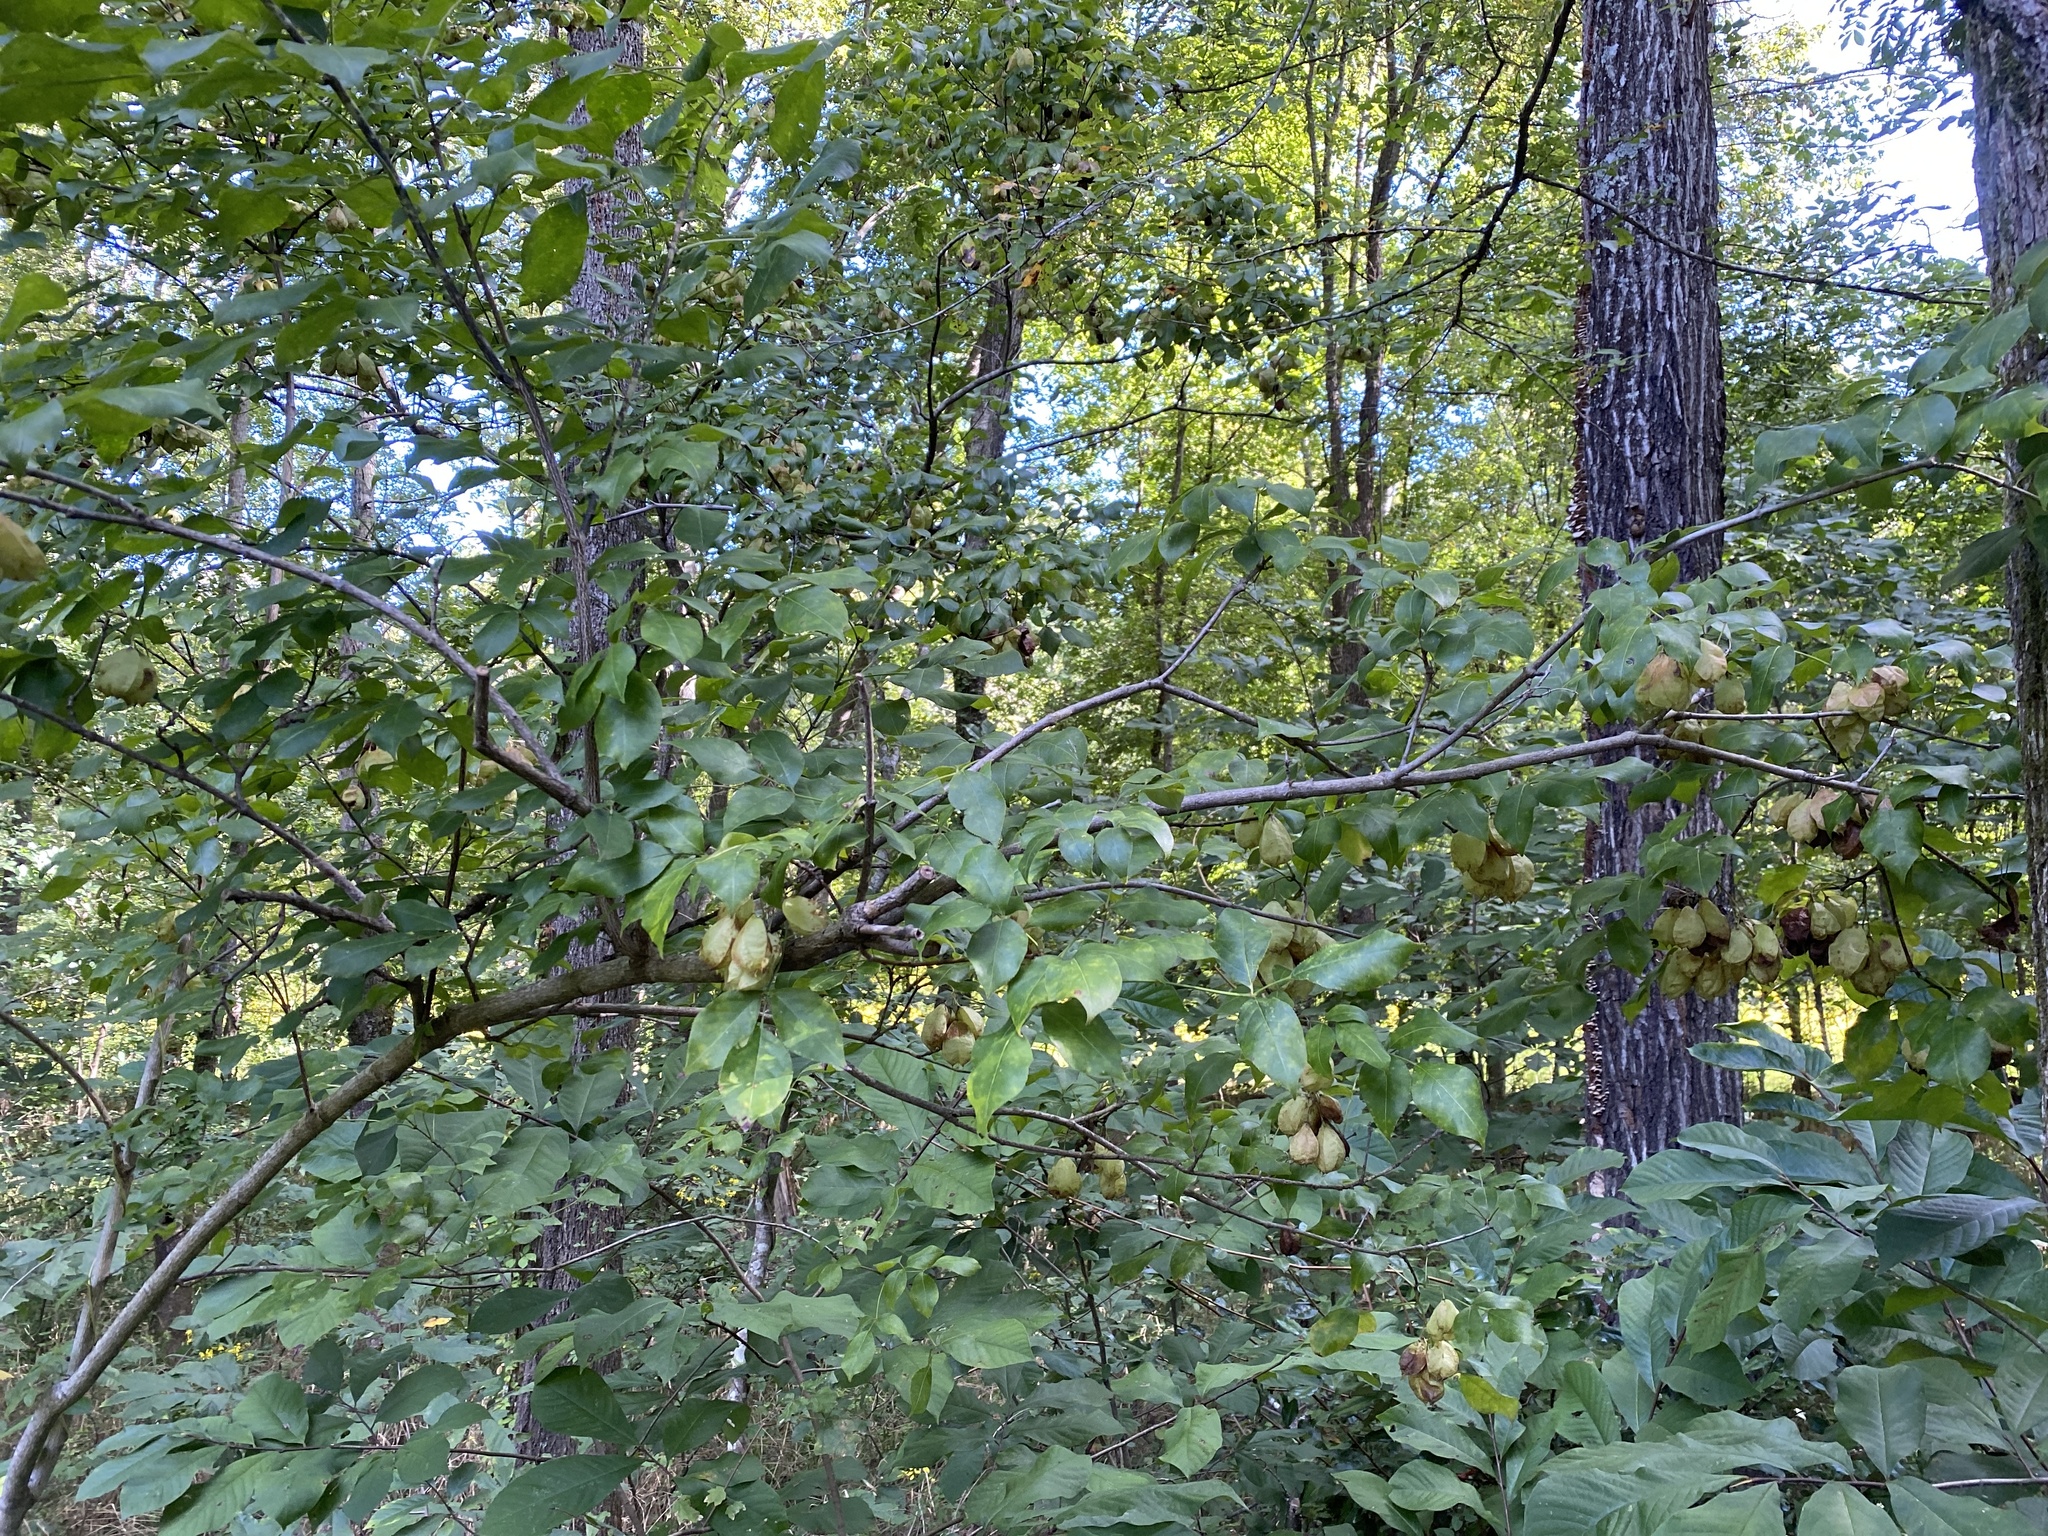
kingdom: Plantae
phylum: Tracheophyta
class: Magnoliopsida
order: Crossosomatales
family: Staphyleaceae
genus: Staphylea
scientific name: Staphylea trifolia
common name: American bladdernut
